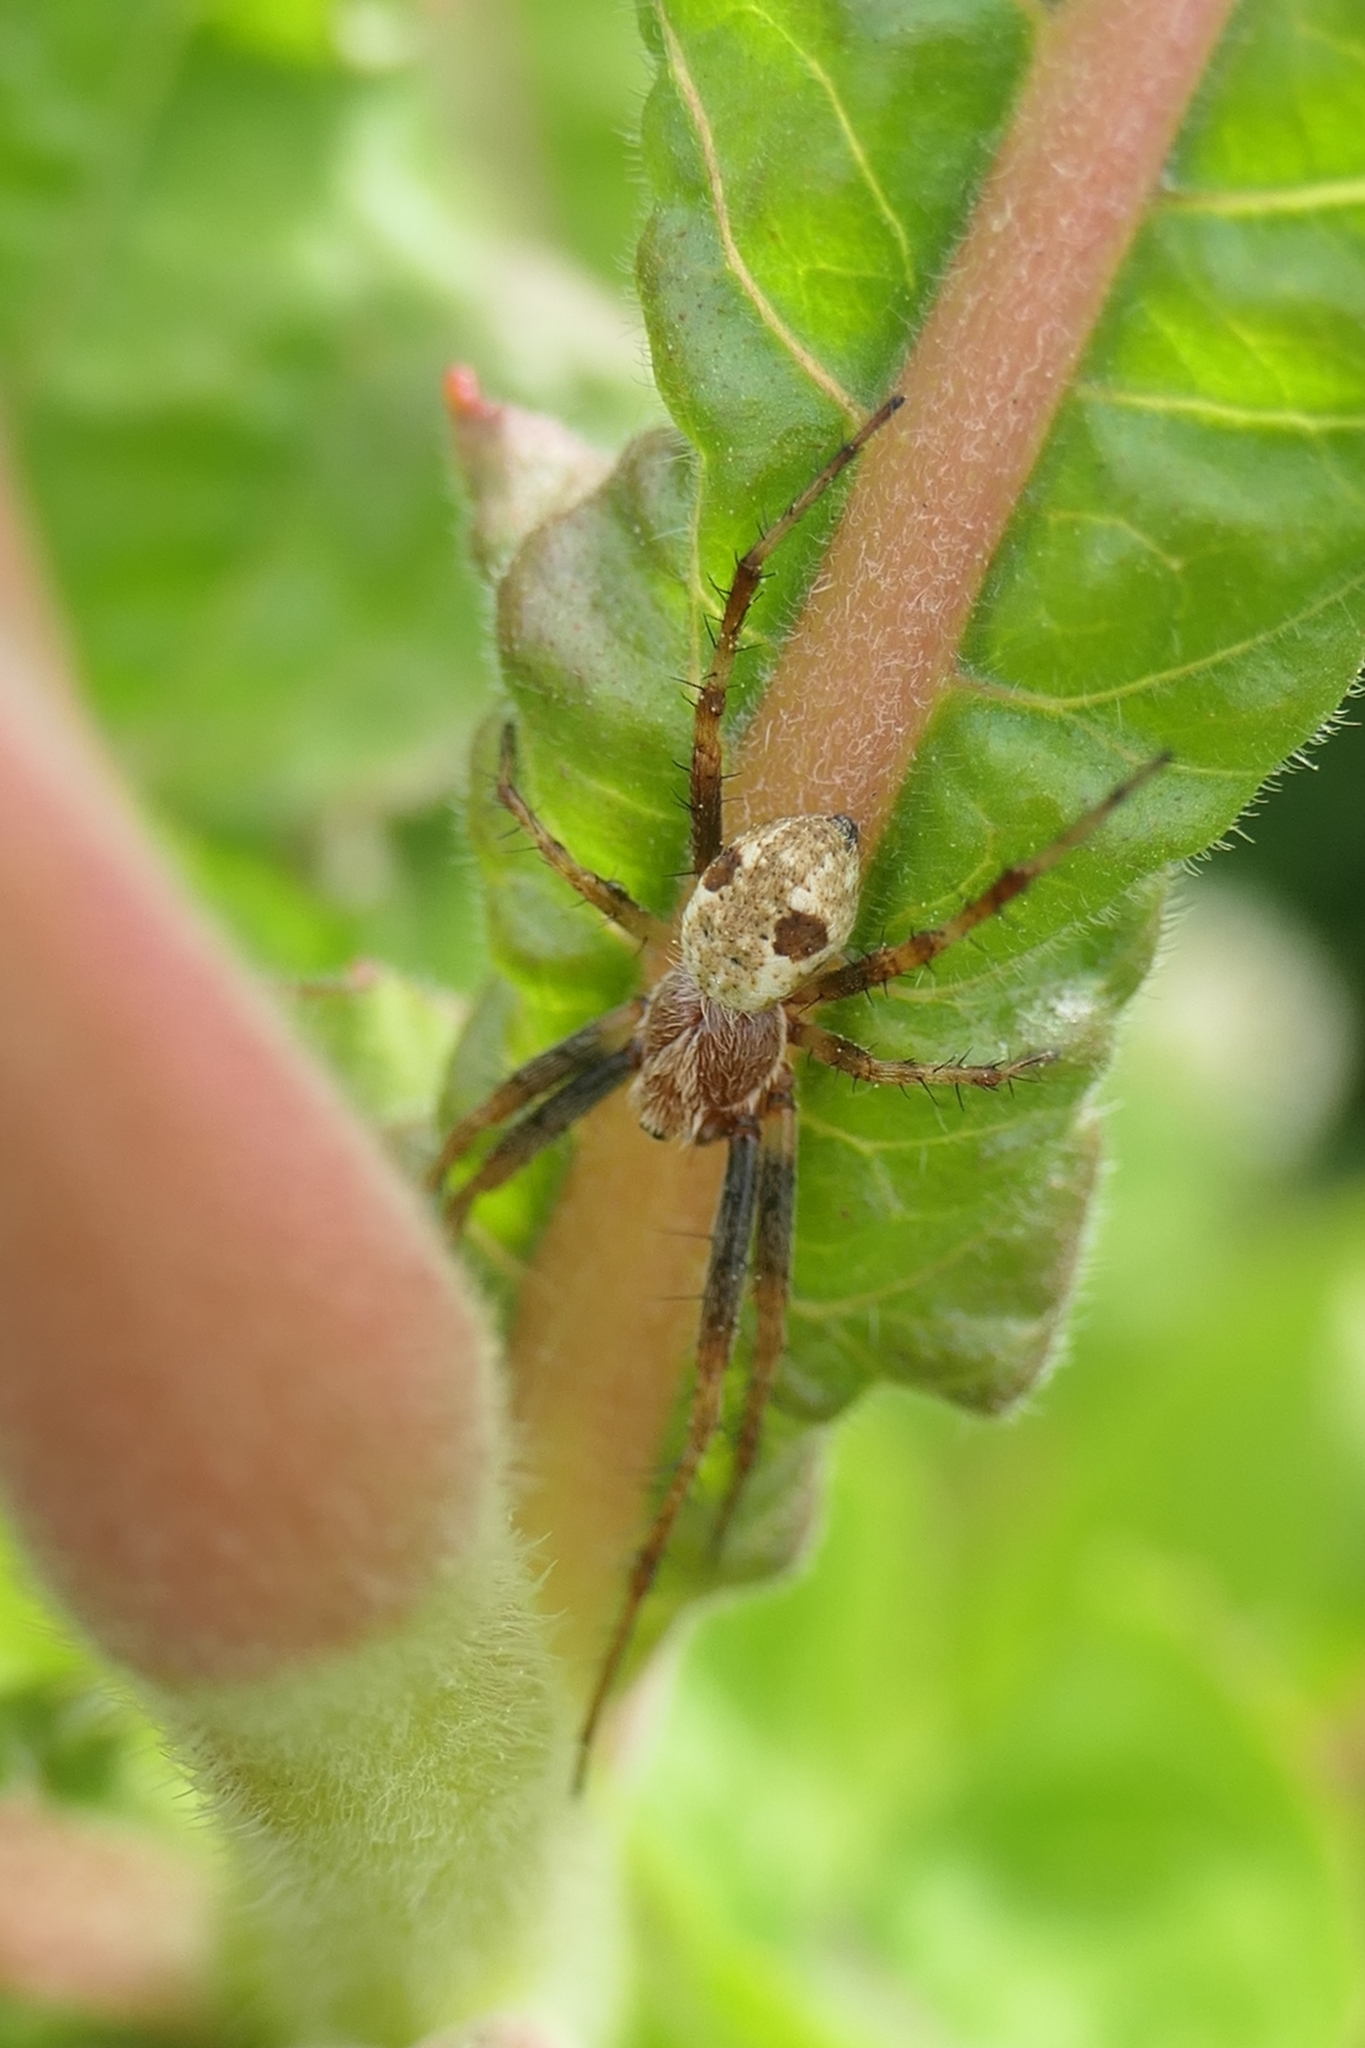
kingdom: Animalia
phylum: Arthropoda
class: Arachnida
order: Araneae
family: Araneidae
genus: Salsa
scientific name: Salsa fuliginata
